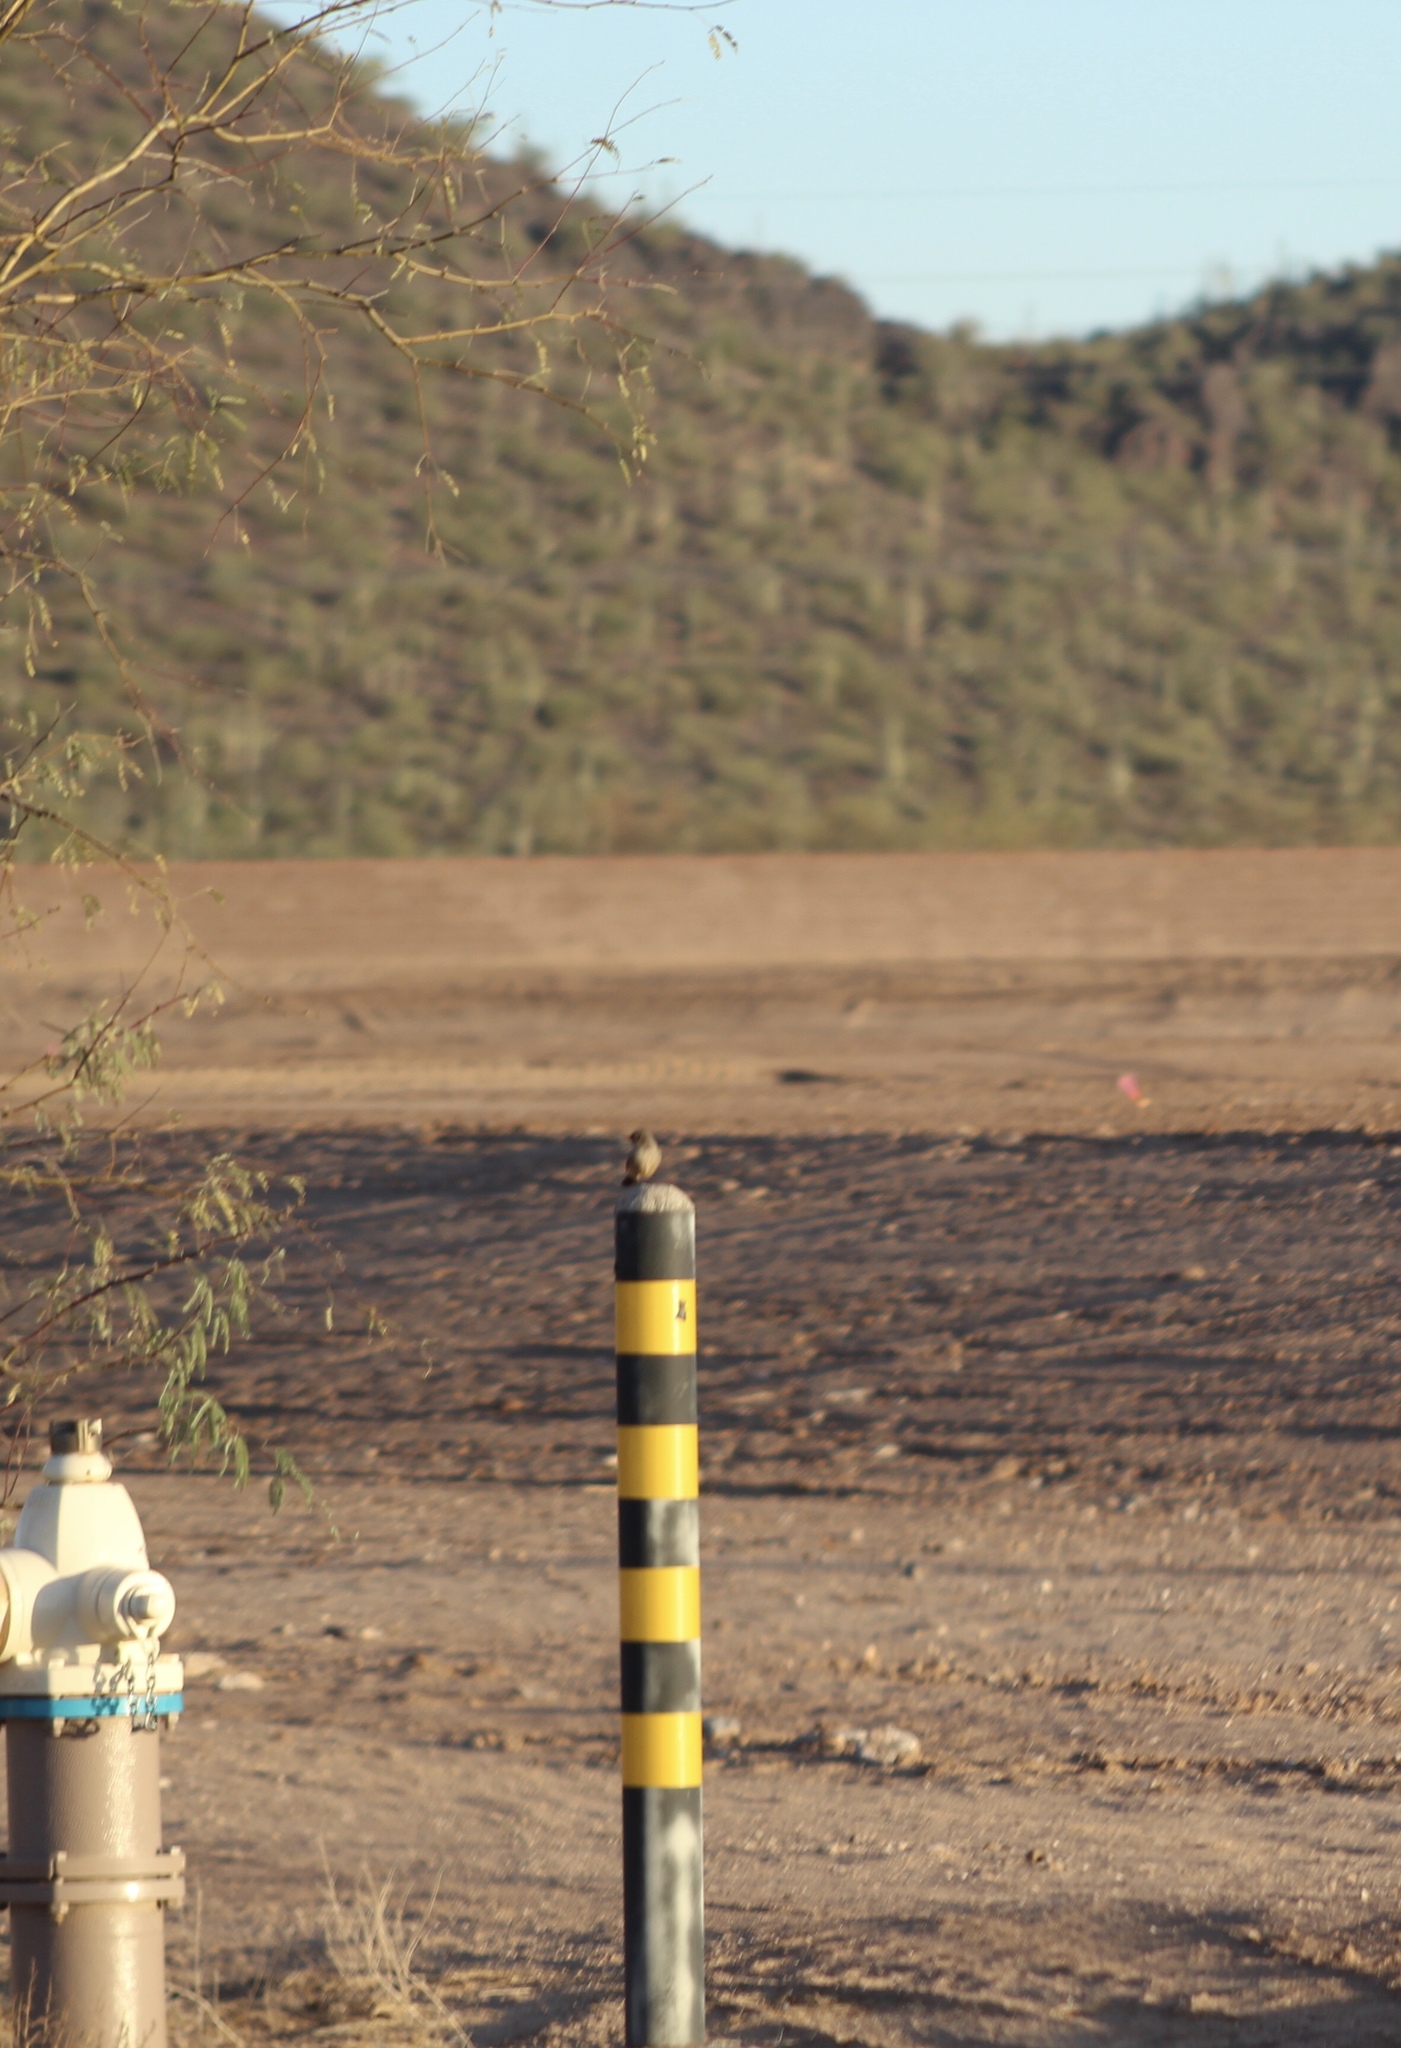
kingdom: Animalia
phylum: Chordata
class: Aves
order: Passeriformes
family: Tyrannidae
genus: Sayornis
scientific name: Sayornis saya
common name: Say's phoebe
